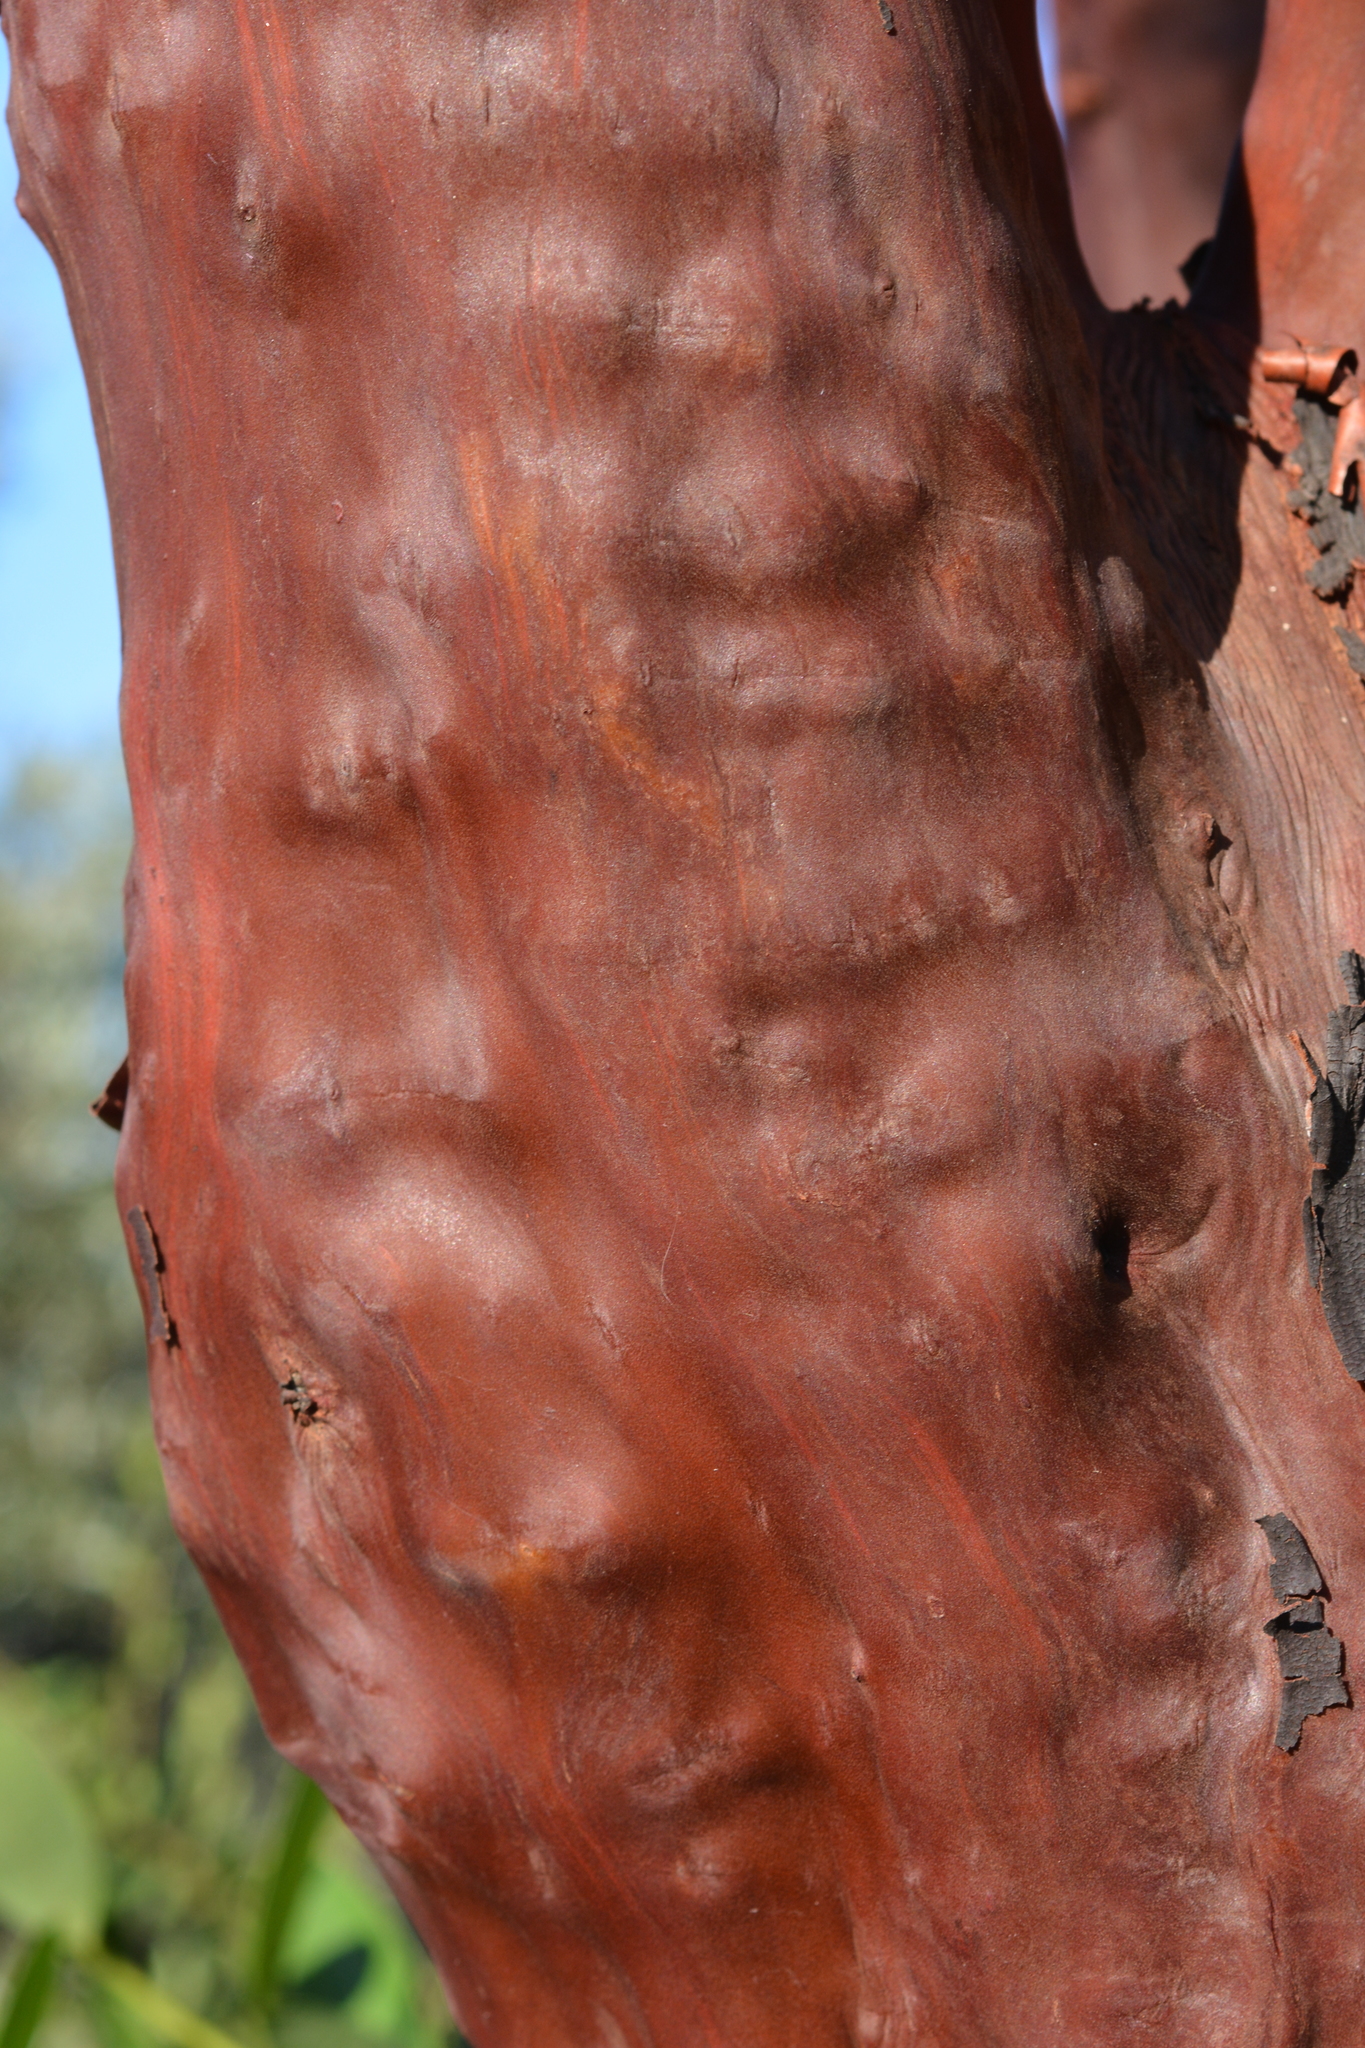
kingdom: Plantae
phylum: Tracheophyta
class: Magnoliopsida
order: Ericales
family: Ericaceae
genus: Arbutus
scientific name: Arbutus menziesii
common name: Pacific madrone
